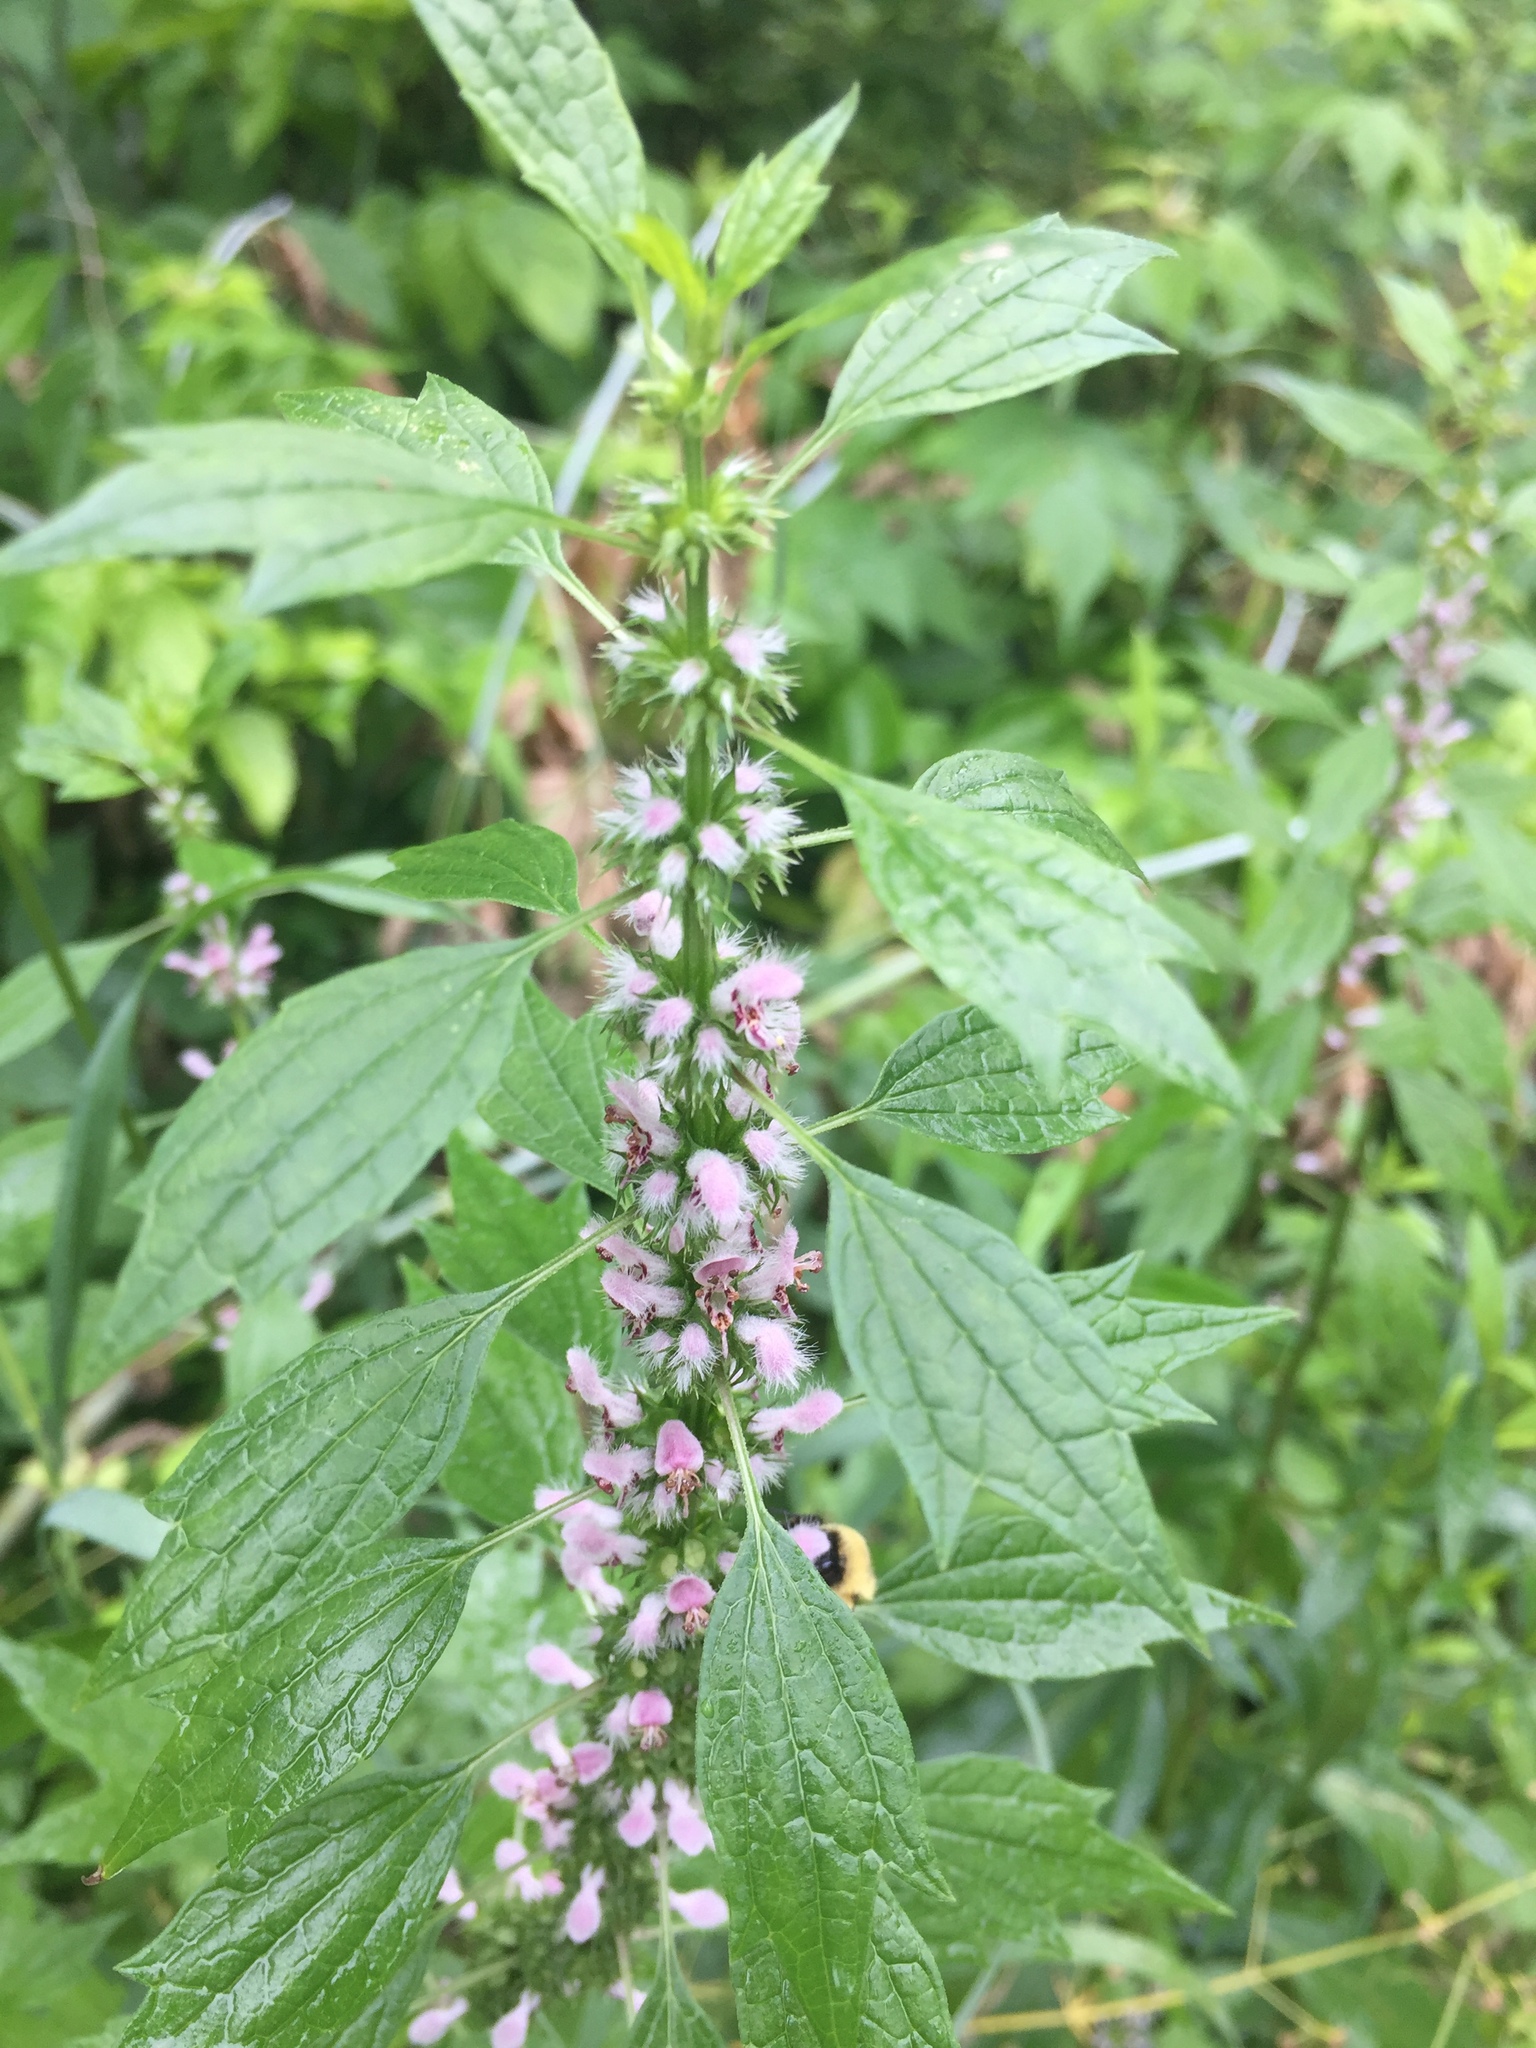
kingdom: Plantae
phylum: Tracheophyta
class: Magnoliopsida
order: Lamiales
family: Lamiaceae
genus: Leonurus
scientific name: Leonurus cardiaca
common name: Motherwort
